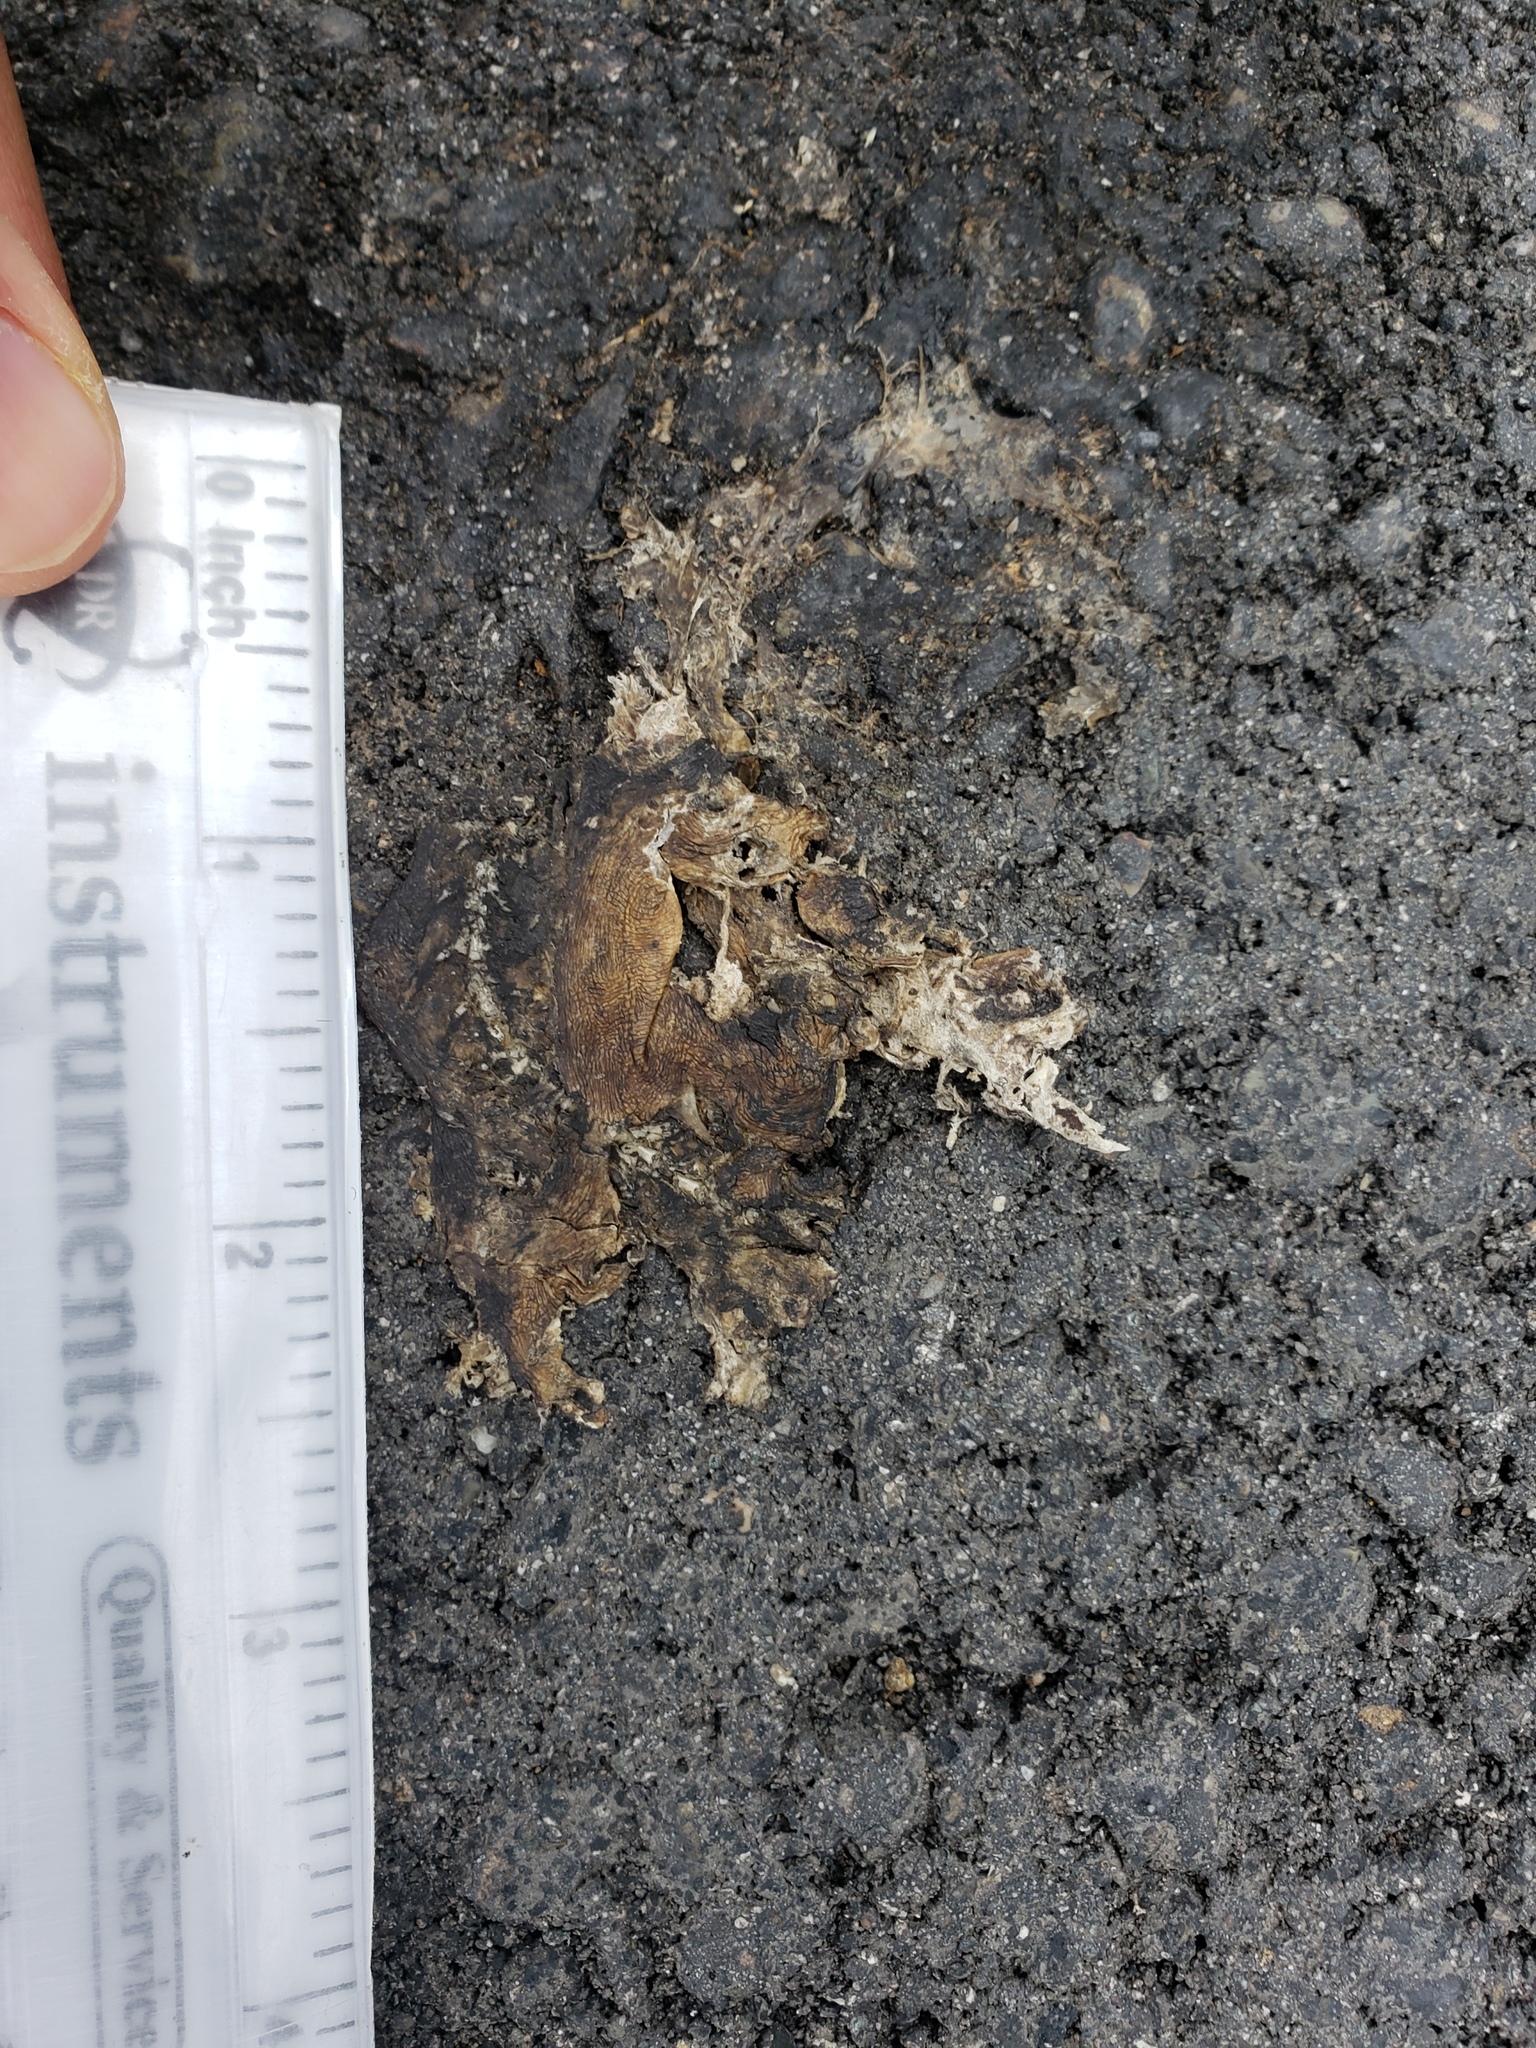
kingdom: Animalia
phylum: Chordata
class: Amphibia
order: Caudata
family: Salamandridae
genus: Taricha
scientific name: Taricha
